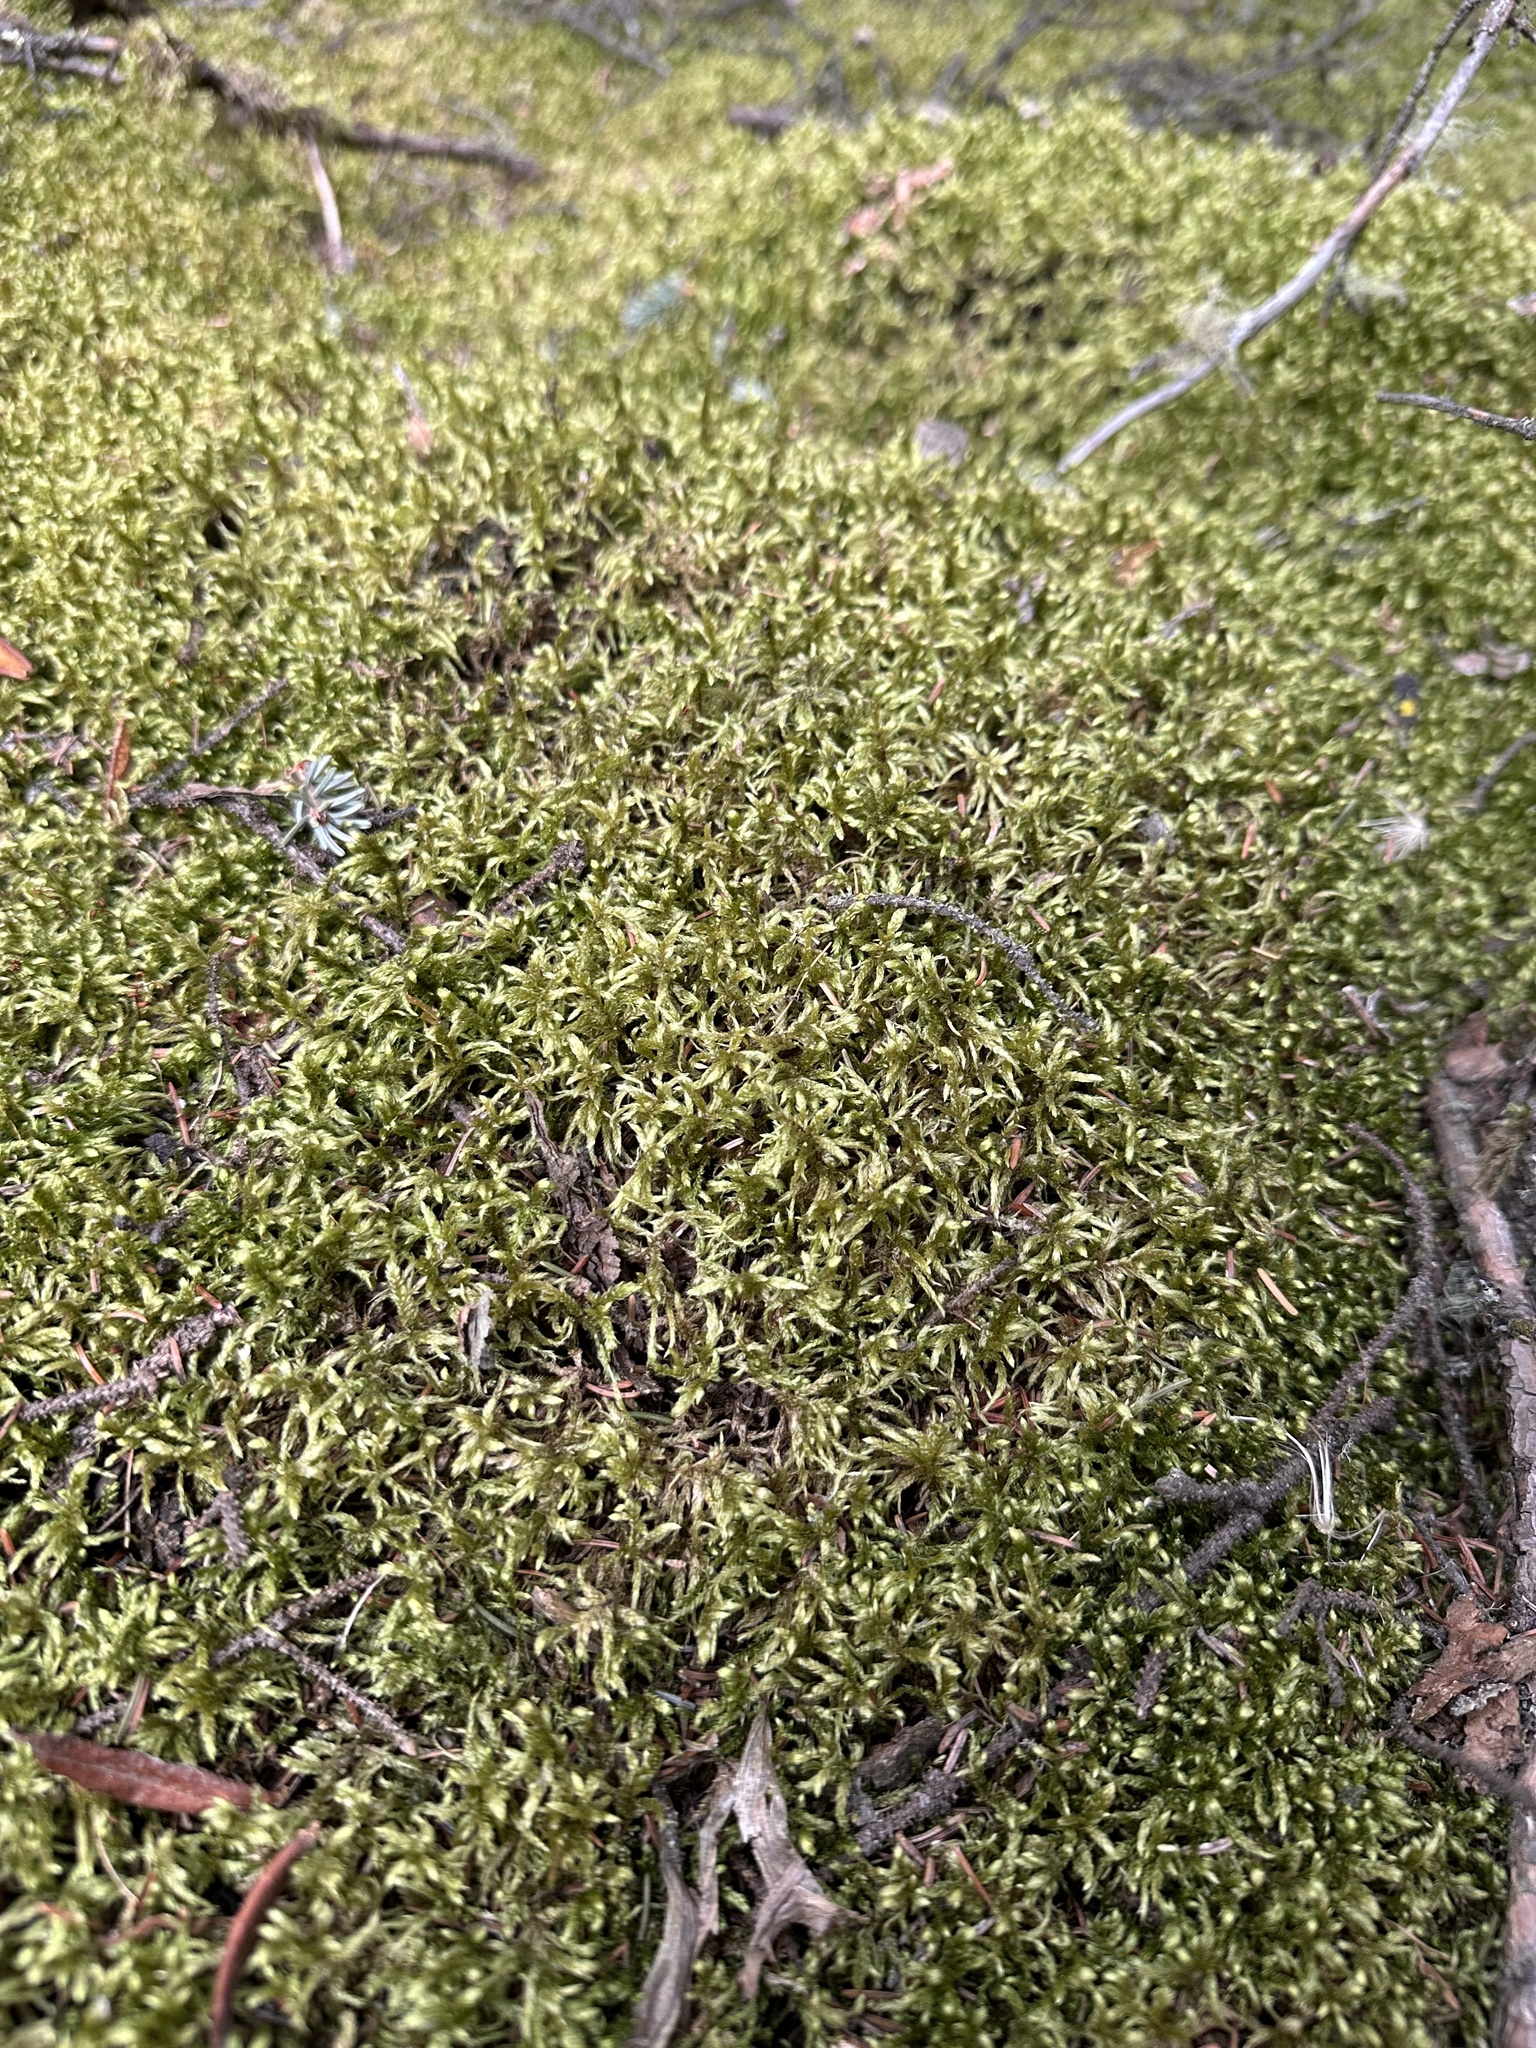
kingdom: Plantae
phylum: Bryophyta
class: Bryopsida
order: Hypnales
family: Hylocomiaceae
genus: Pleurozium
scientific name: Pleurozium schreberi
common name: Red-stemmed feather moss
